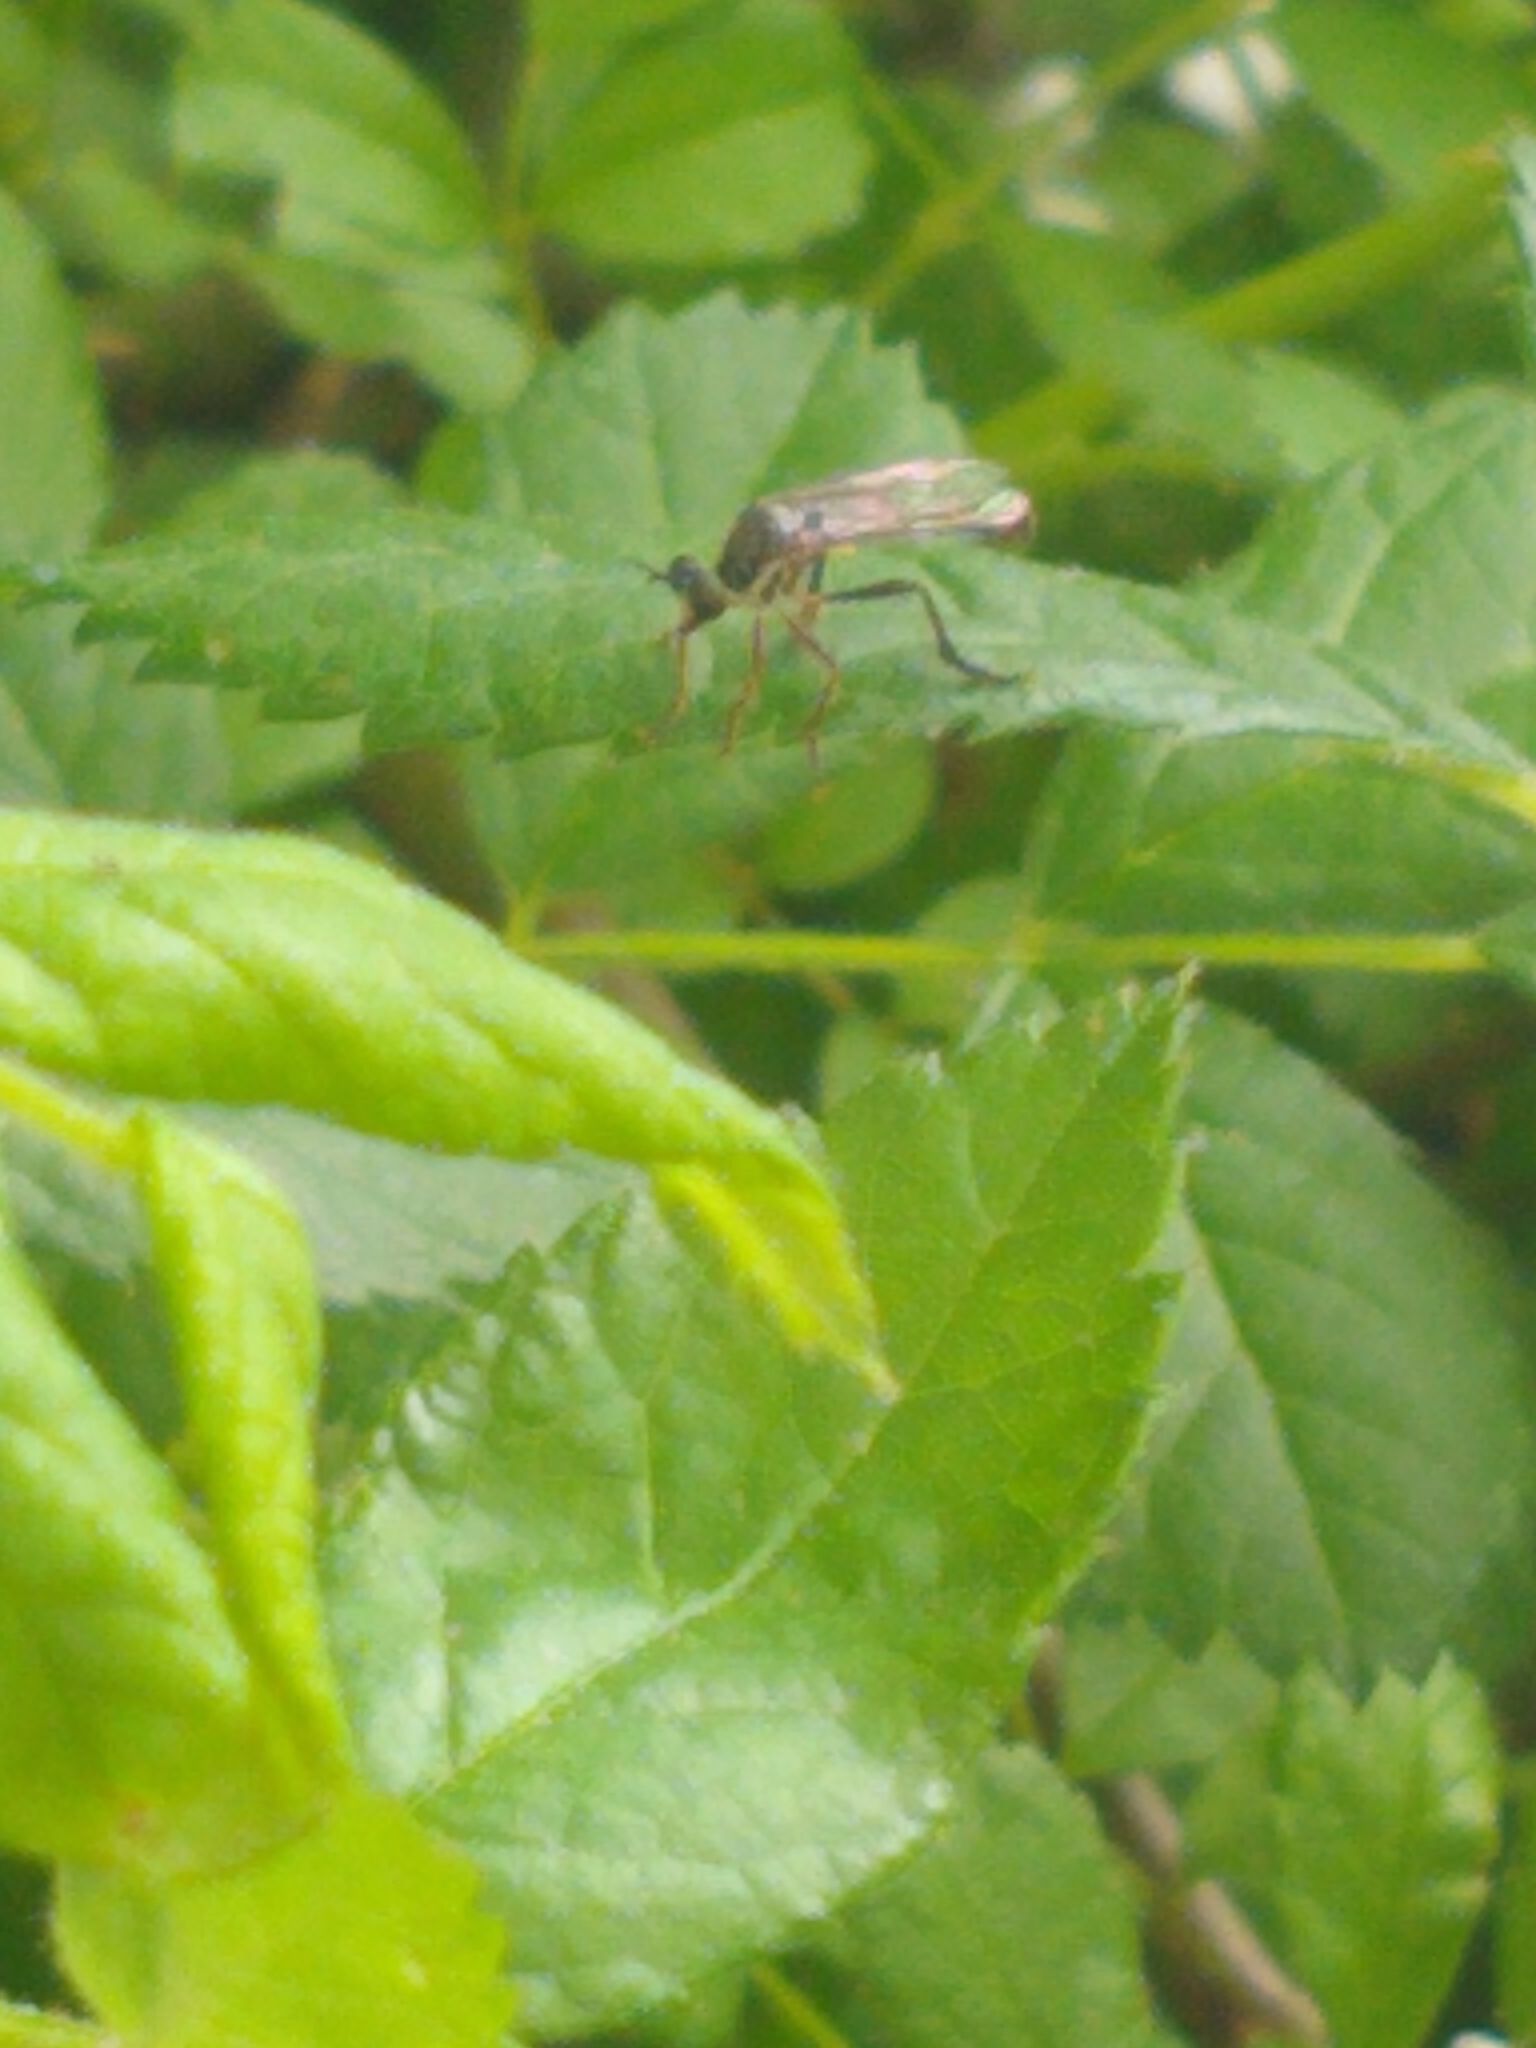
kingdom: Animalia
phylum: Arthropoda
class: Insecta
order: Diptera
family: Asilidae
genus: Dioctria
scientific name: Dioctria hyalipennis
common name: Stripe-legged robberfly
